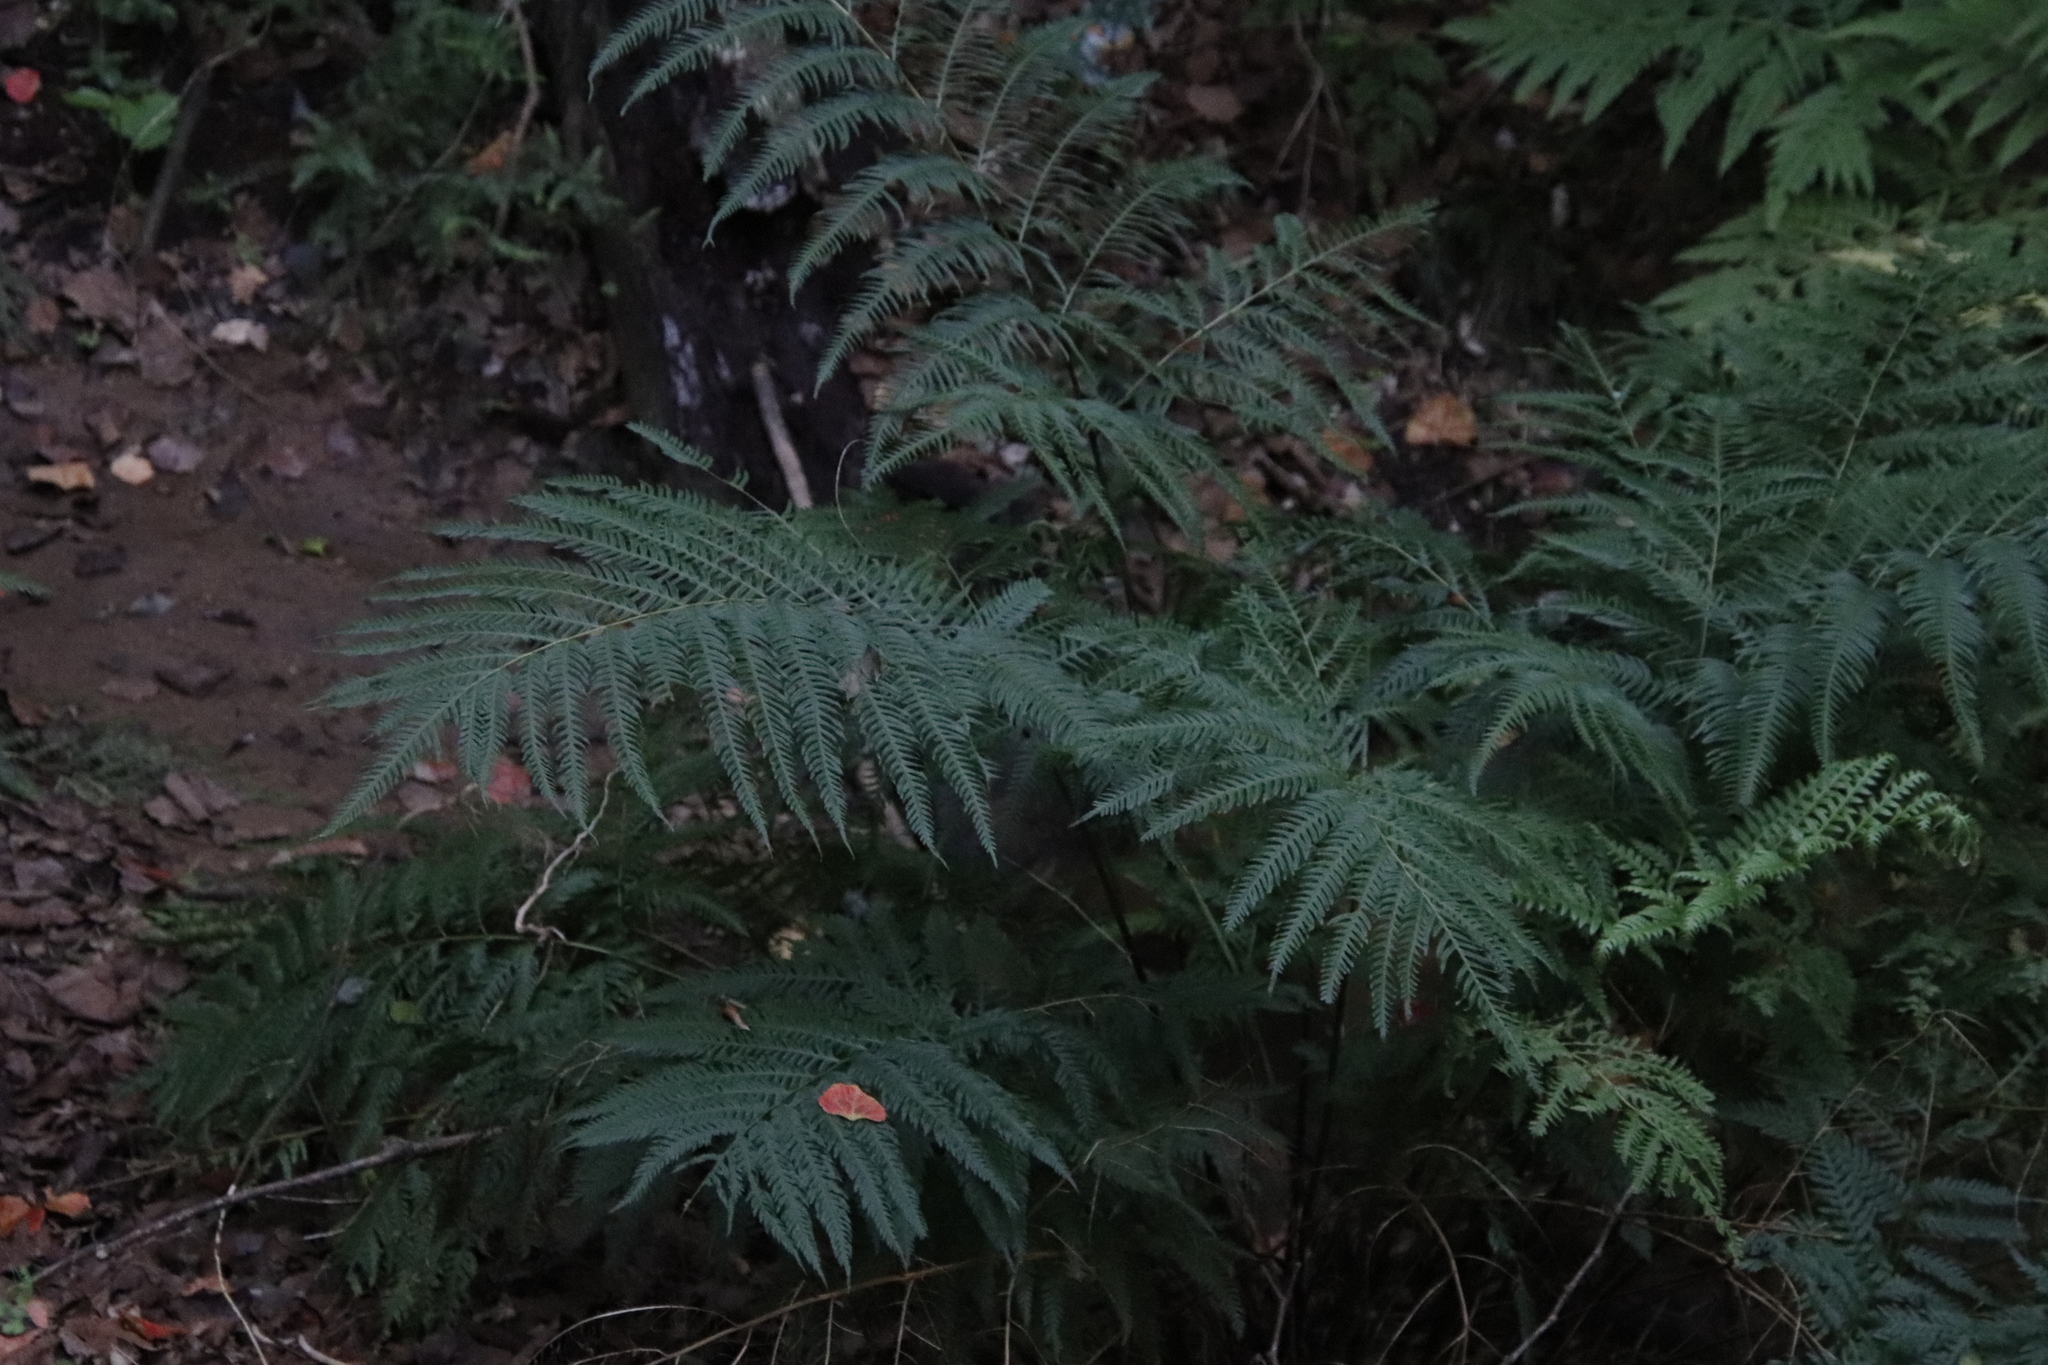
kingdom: Plantae
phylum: Tracheophyta
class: Polypodiopsida
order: Polypodiales
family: Pteridaceae
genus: Pteris
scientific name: Pteris dentata
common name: Toothed brake
